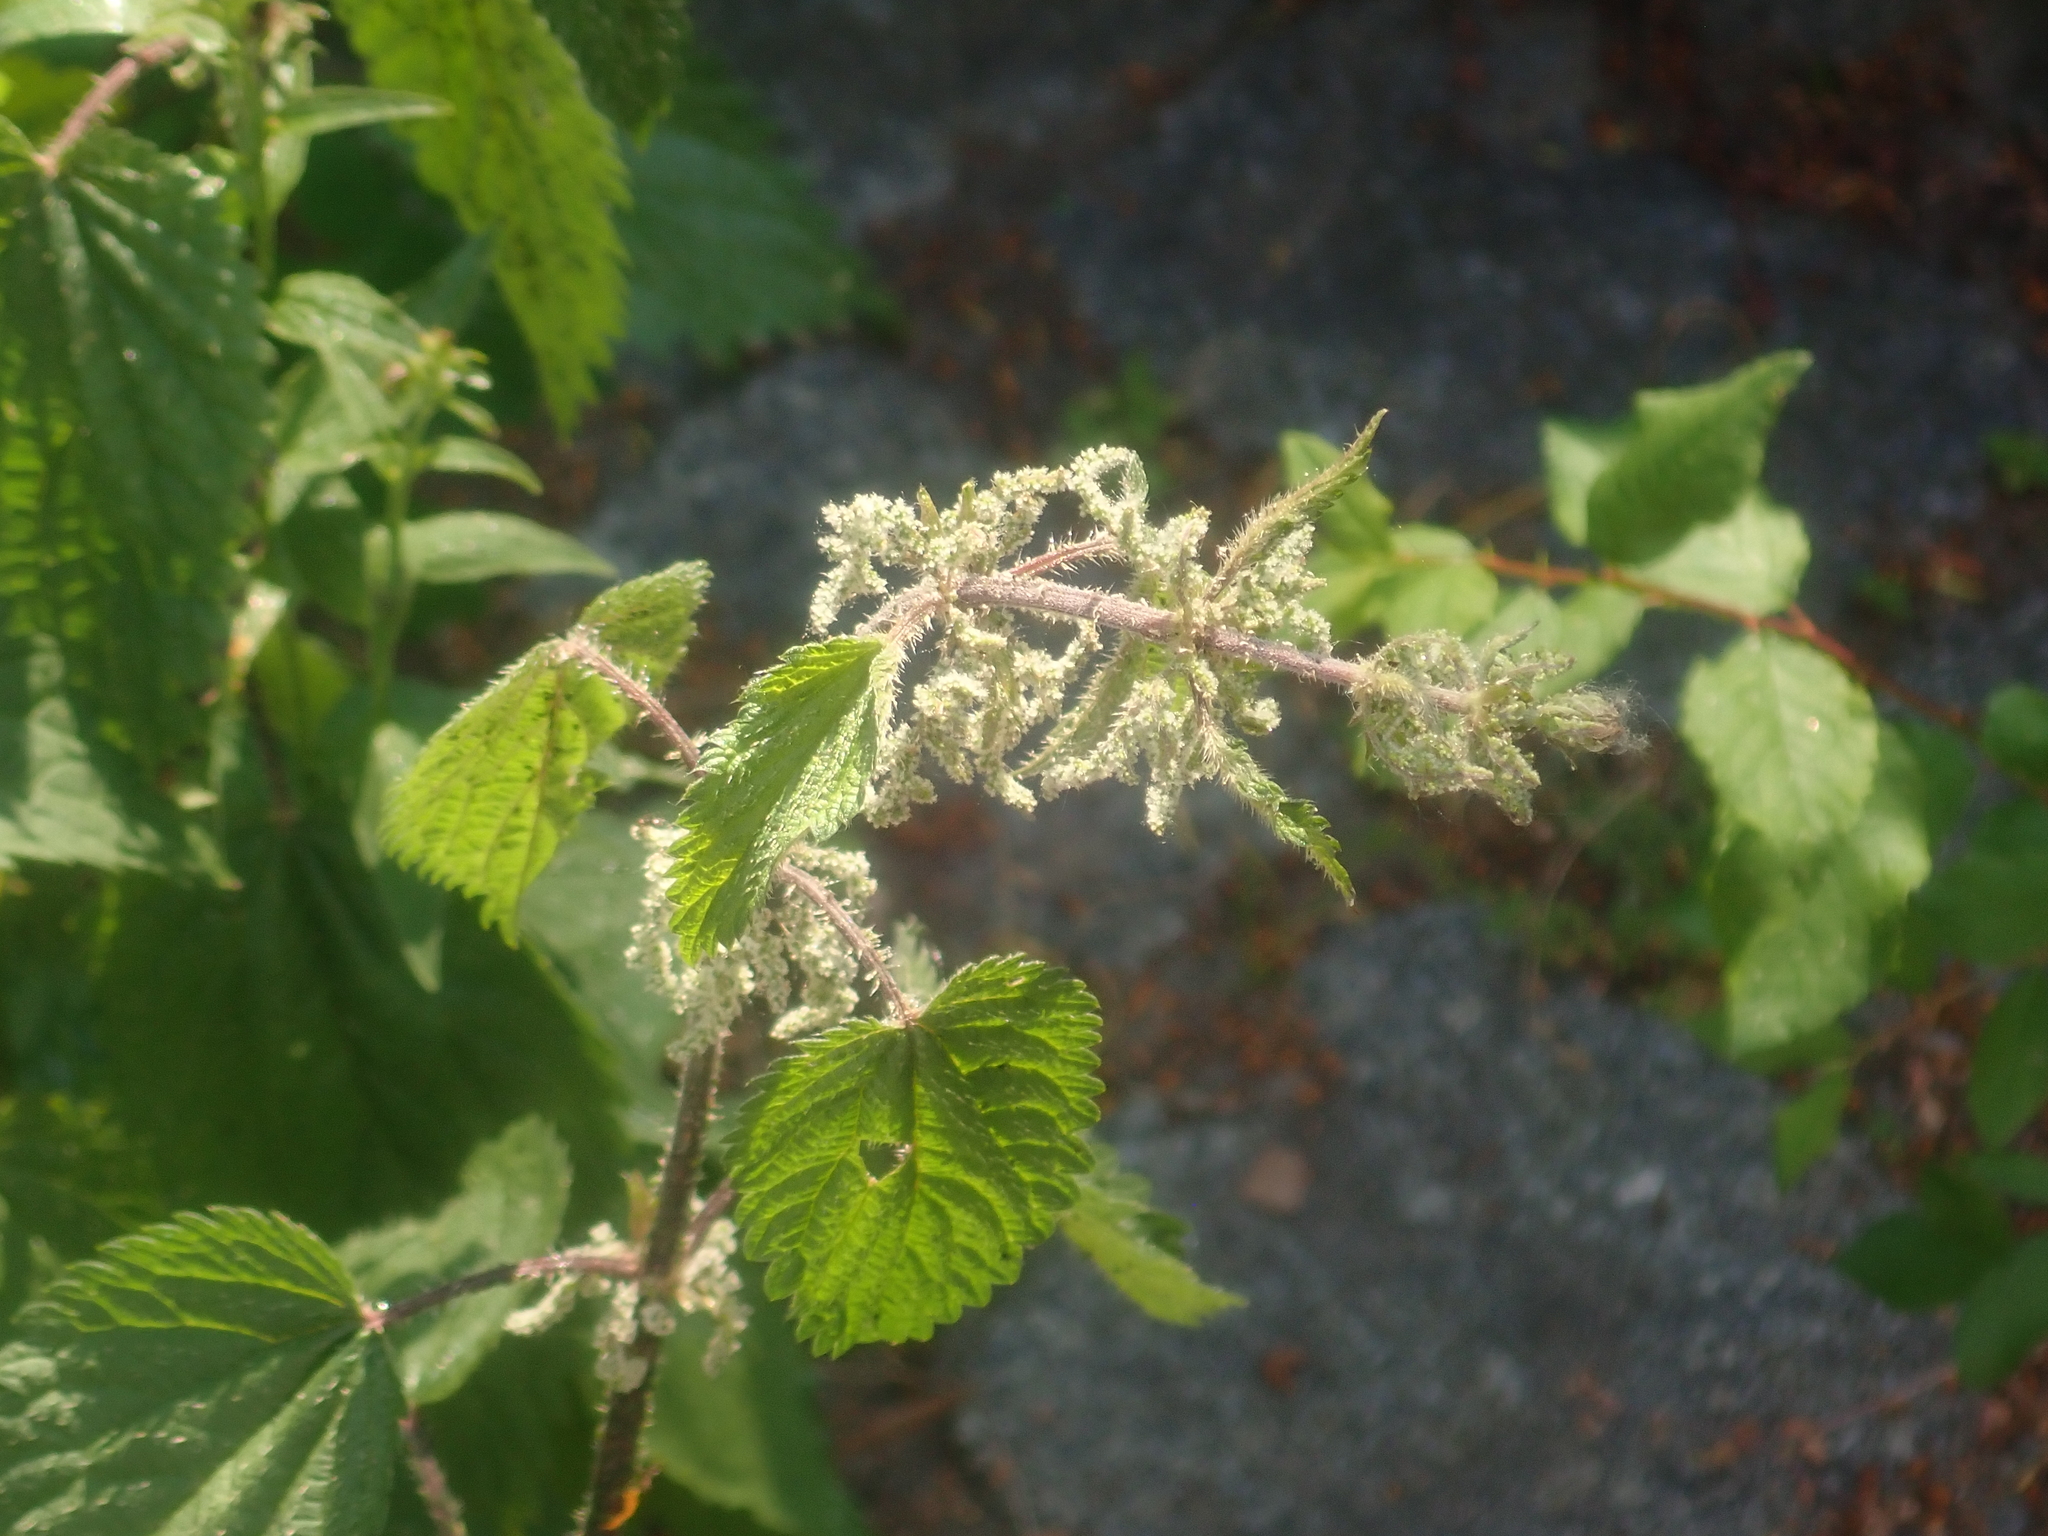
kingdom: Plantae
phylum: Tracheophyta
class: Magnoliopsida
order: Rosales
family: Urticaceae
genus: Urtica
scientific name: Urtica dioica
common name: Common nettle
